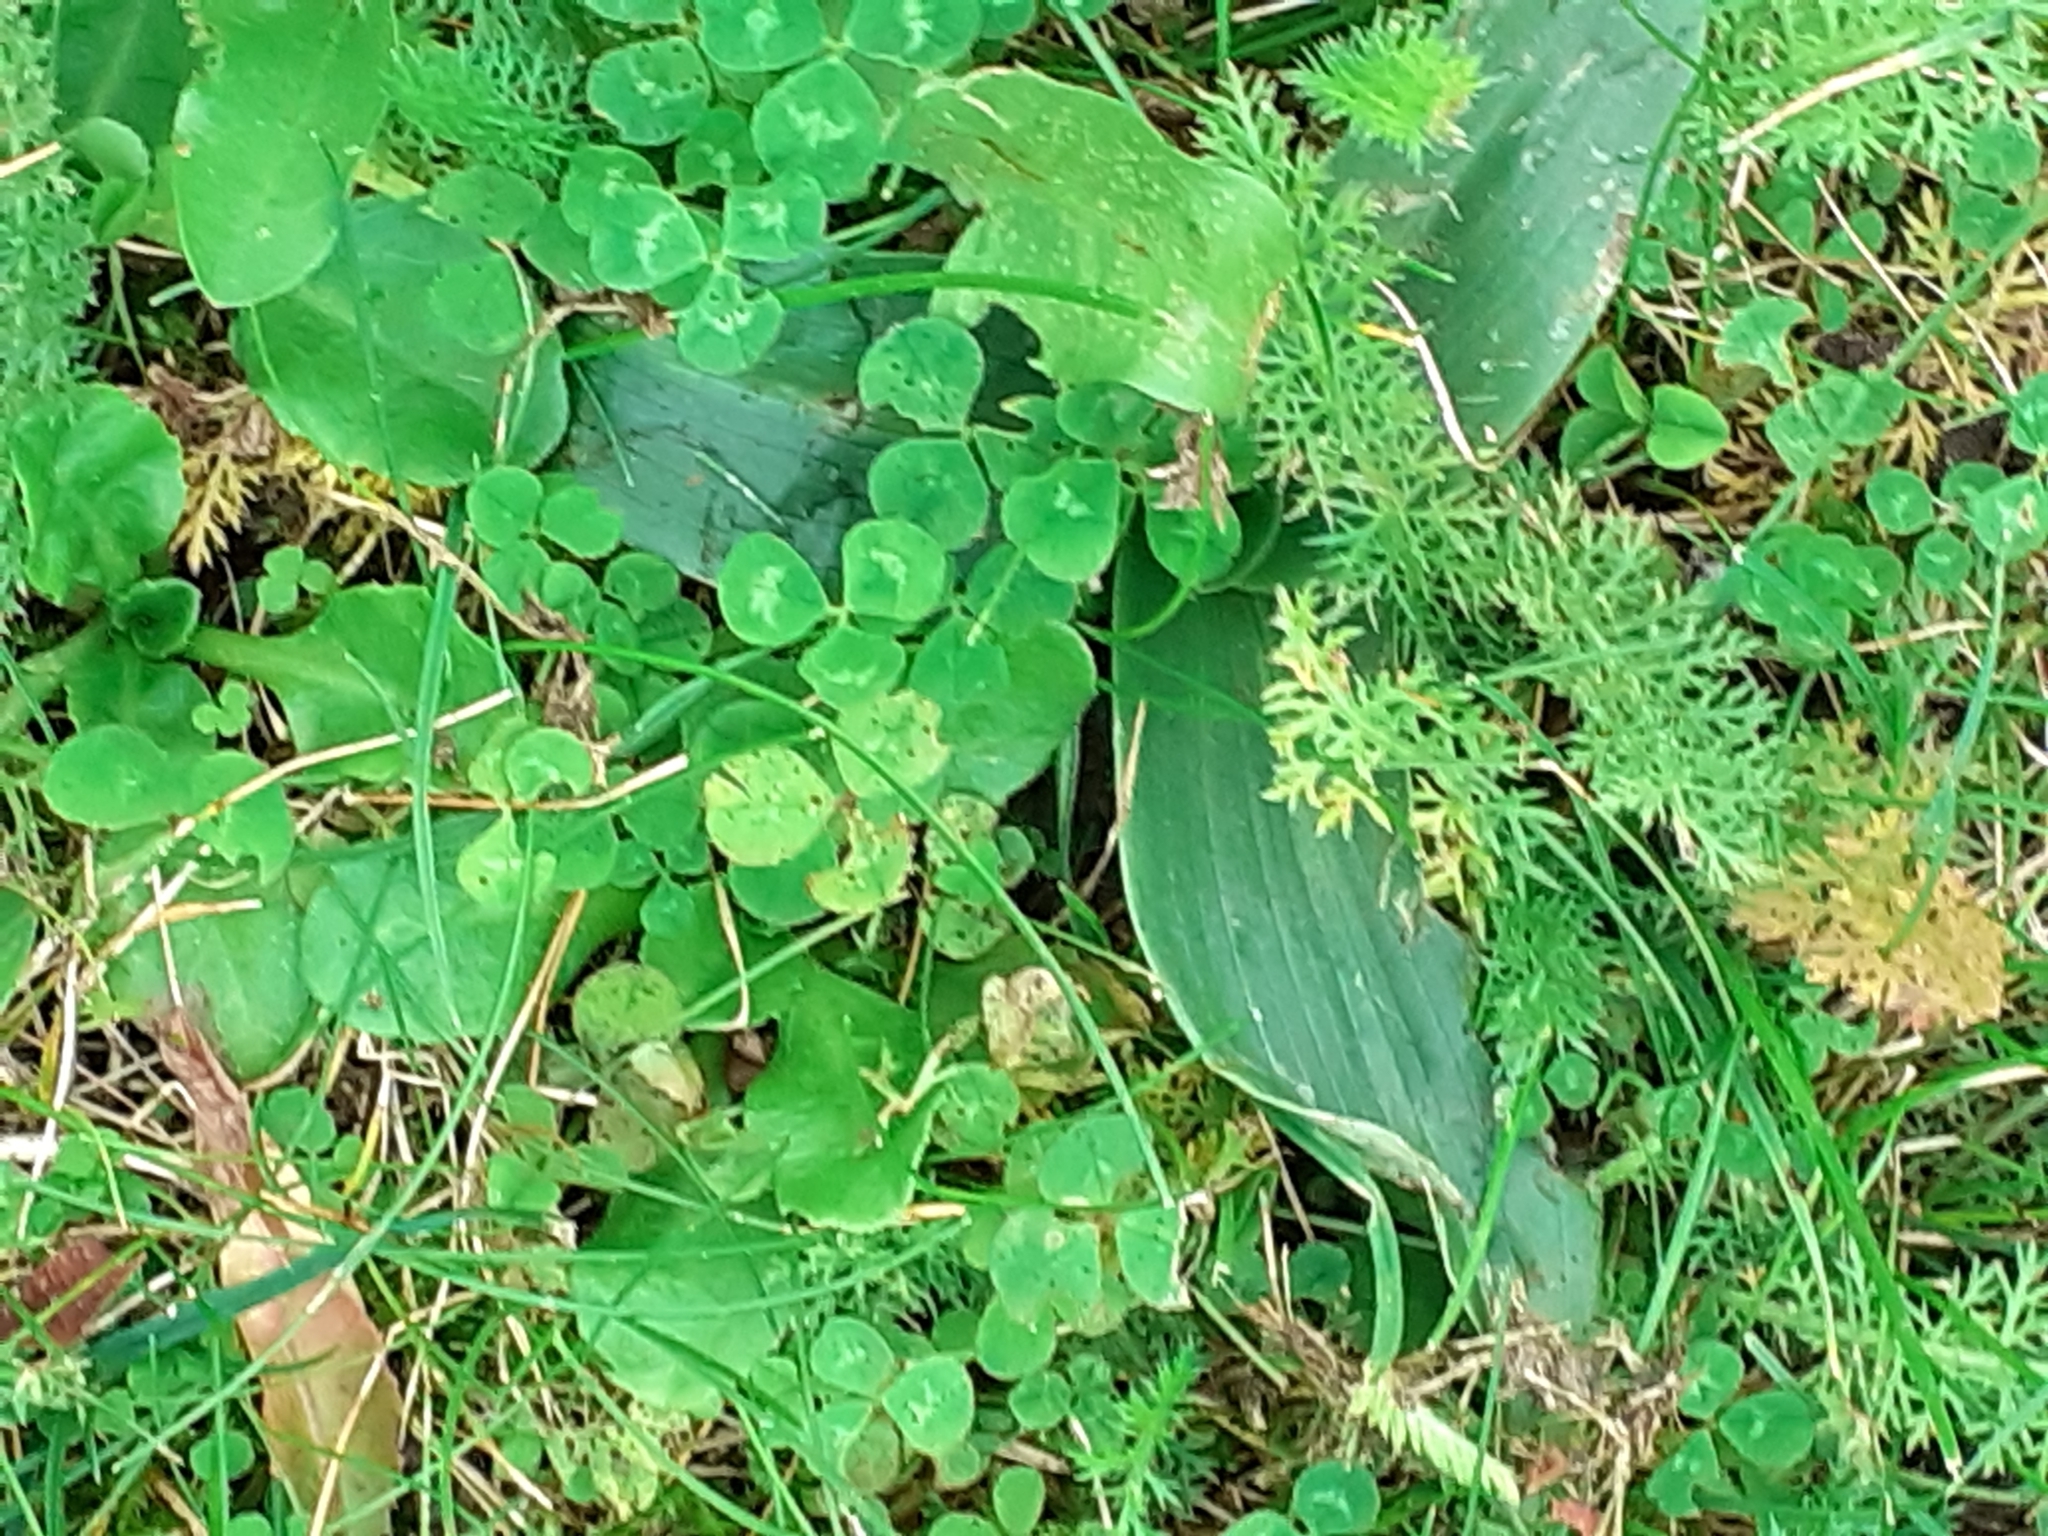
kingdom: Plantae
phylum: Tracheophyta
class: Liliopsida
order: Asparagales
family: Orchidaceae
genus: Ophrys
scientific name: Ophrys apifera
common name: Bee orchid
